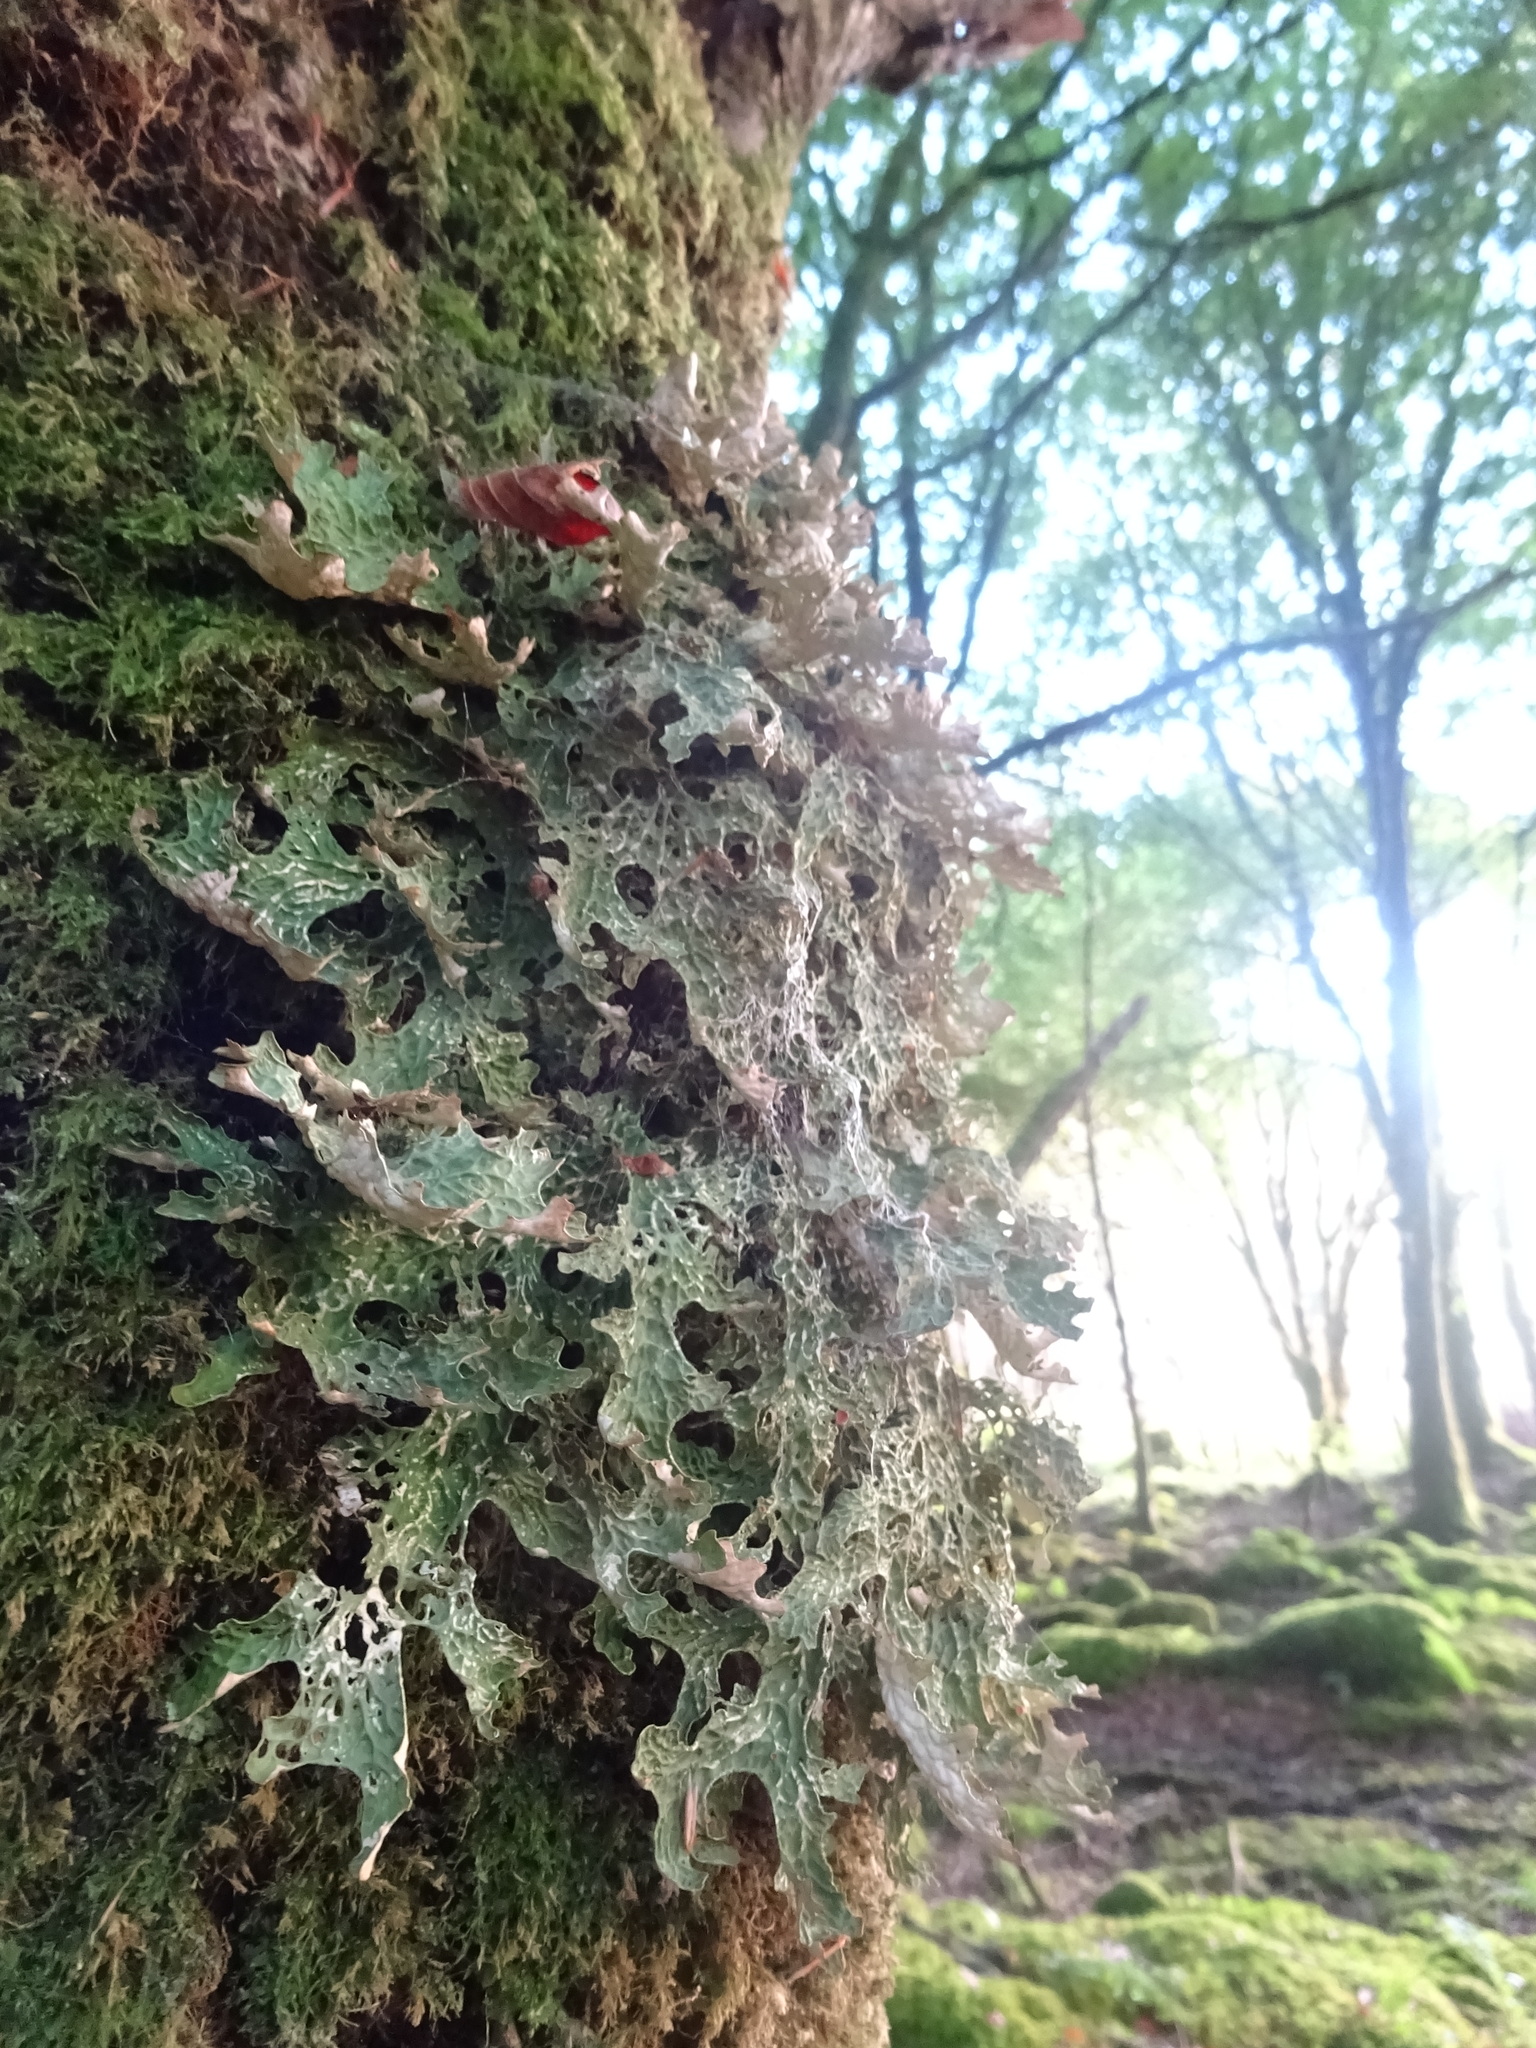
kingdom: Fungi
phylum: Ascomycota
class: Lecanoromycetes
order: Peltigerales
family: Lobariaceae
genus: Lobaria
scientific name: Lobaria pulmonaria
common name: Lungwort
